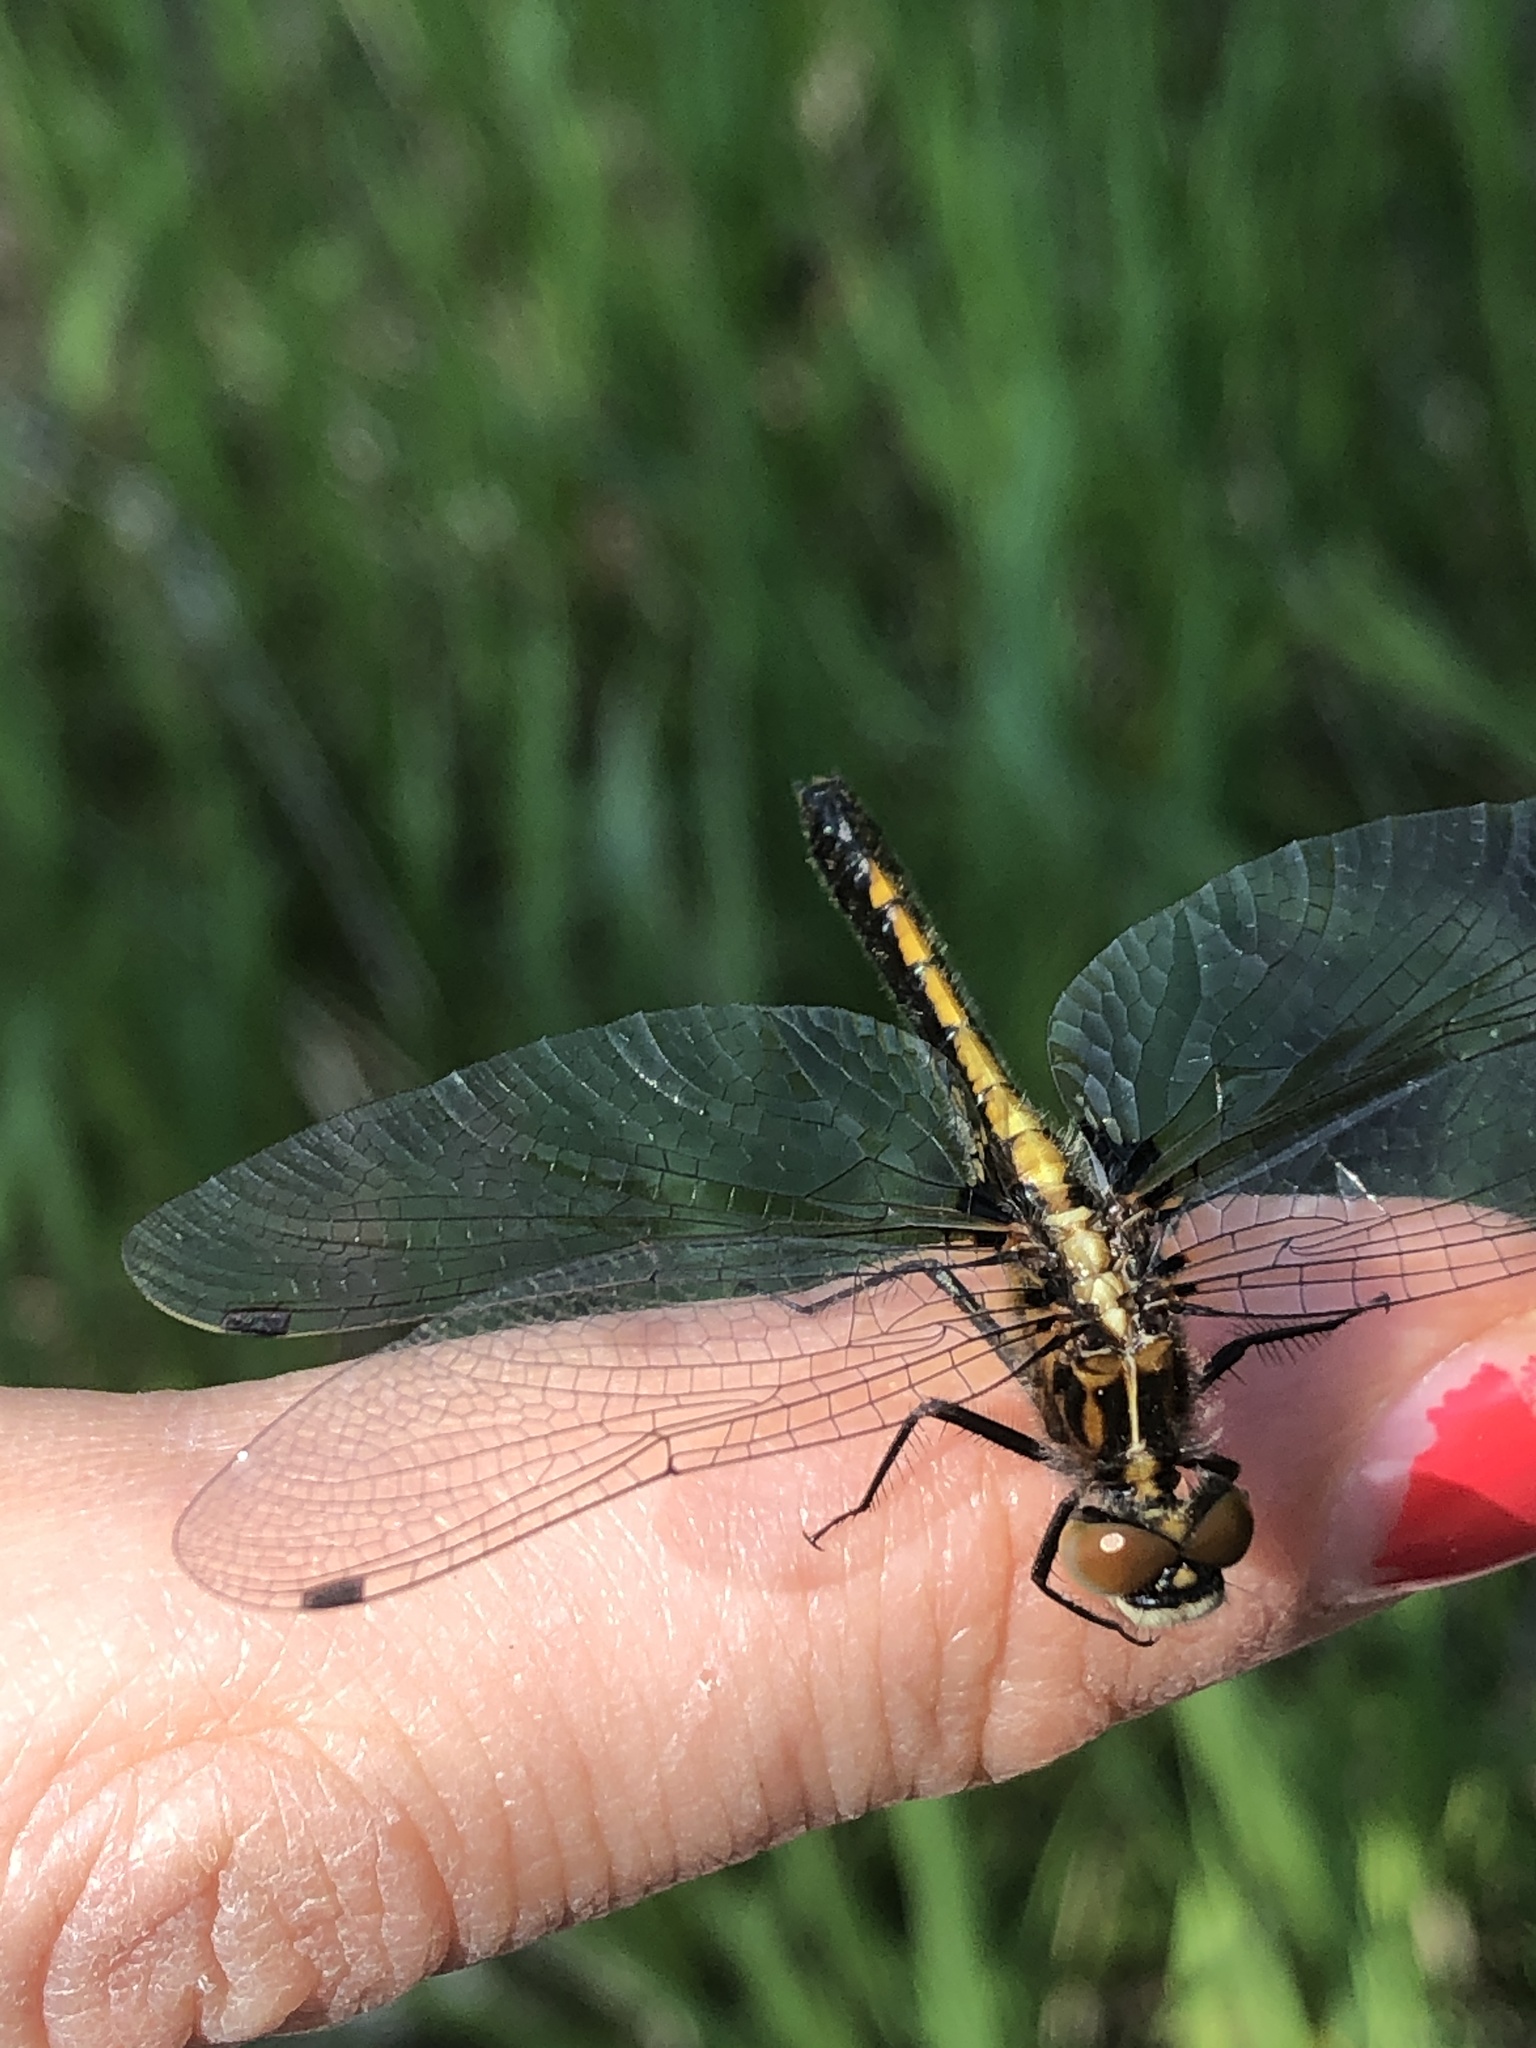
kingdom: Animalia
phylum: Arthropoda
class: Insecta
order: Odonata
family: Libellulidae
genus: Leucorrhinia
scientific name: Leucorrhinia intacta
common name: Dot-tailed whiteface
